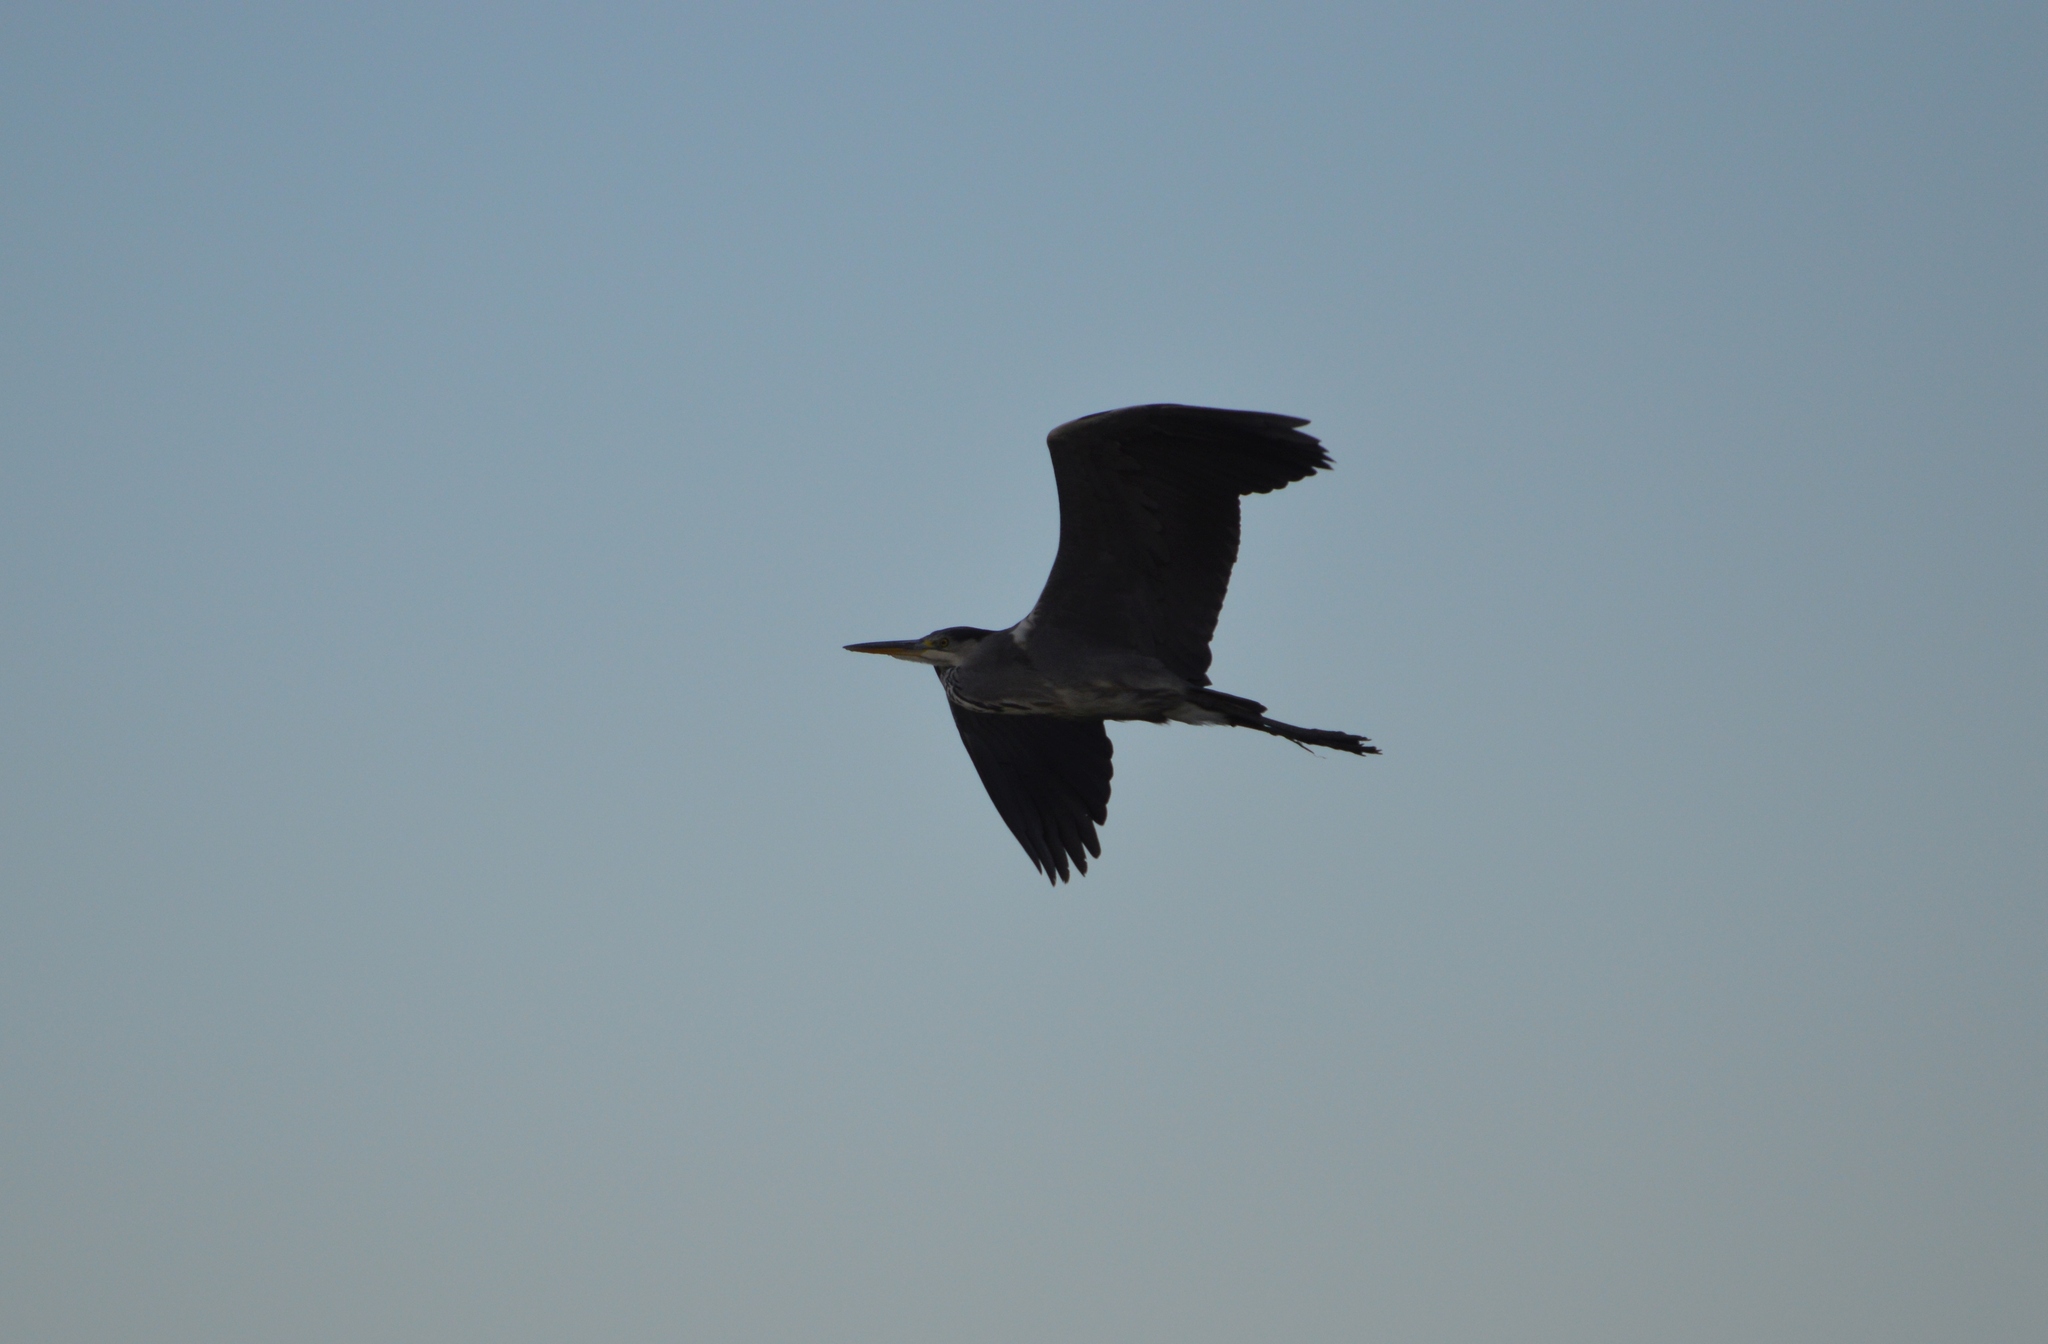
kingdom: Animalia
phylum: Chordata
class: Aves
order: Pelecaniformes
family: Ardeidae
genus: Ardea
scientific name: Ardea cinerea
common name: Grey heron
